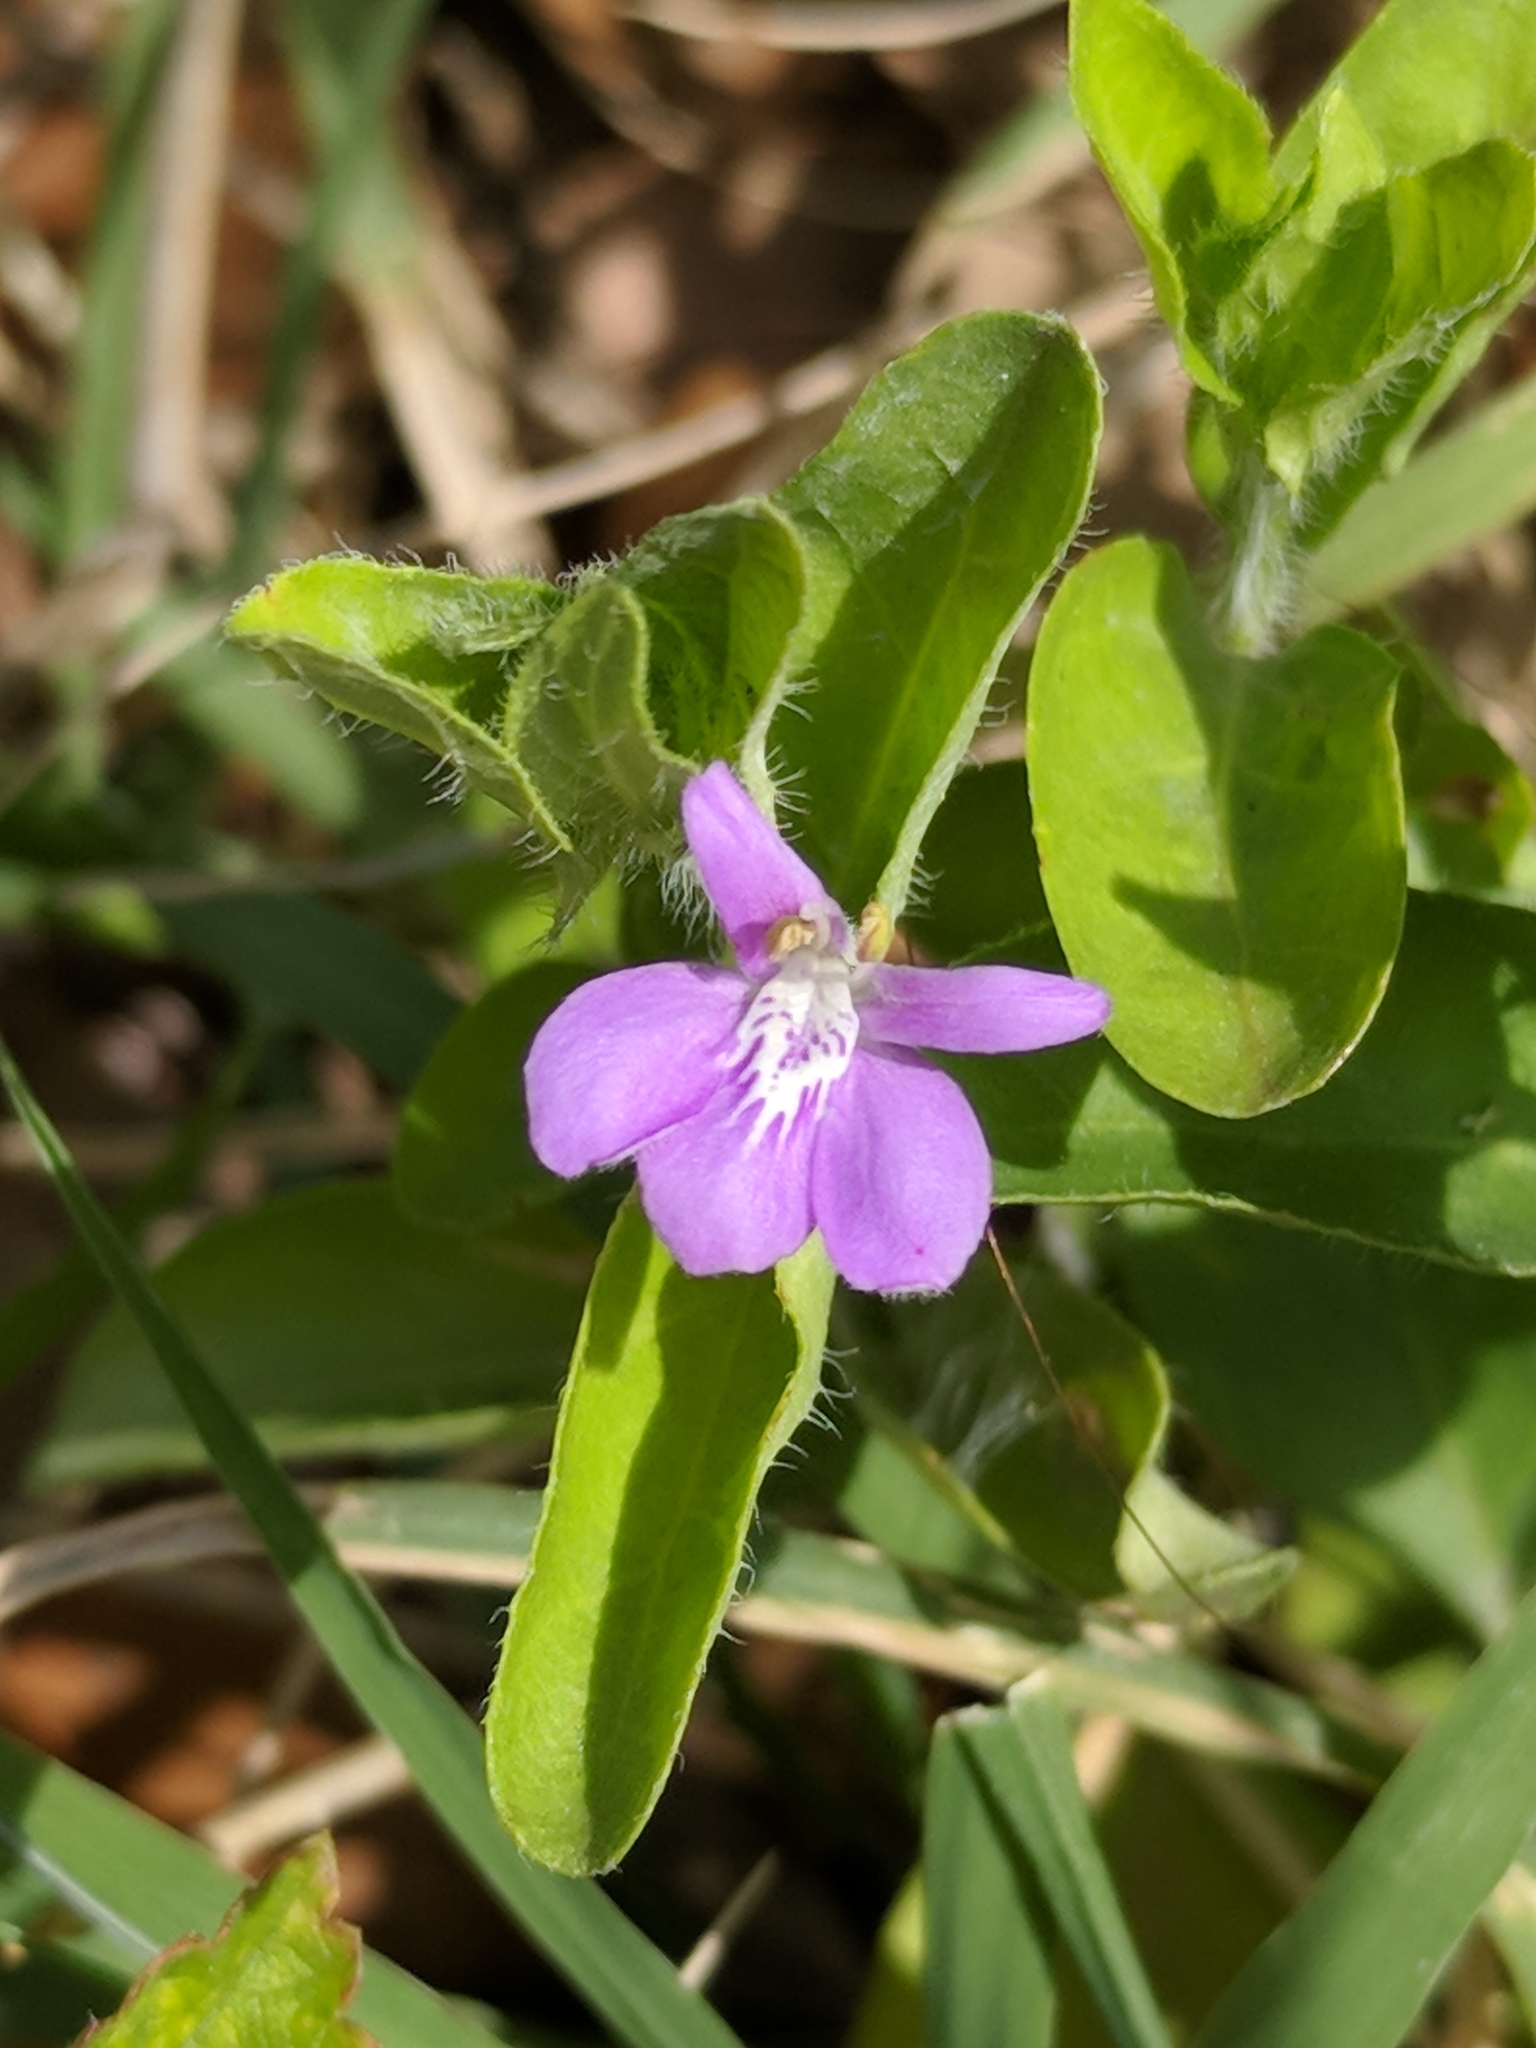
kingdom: Plantae
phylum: Tracheophyta
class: Magnoliopsida
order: Lamiales
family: Acanthaceae
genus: Justicia
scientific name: Justicia pilosella
